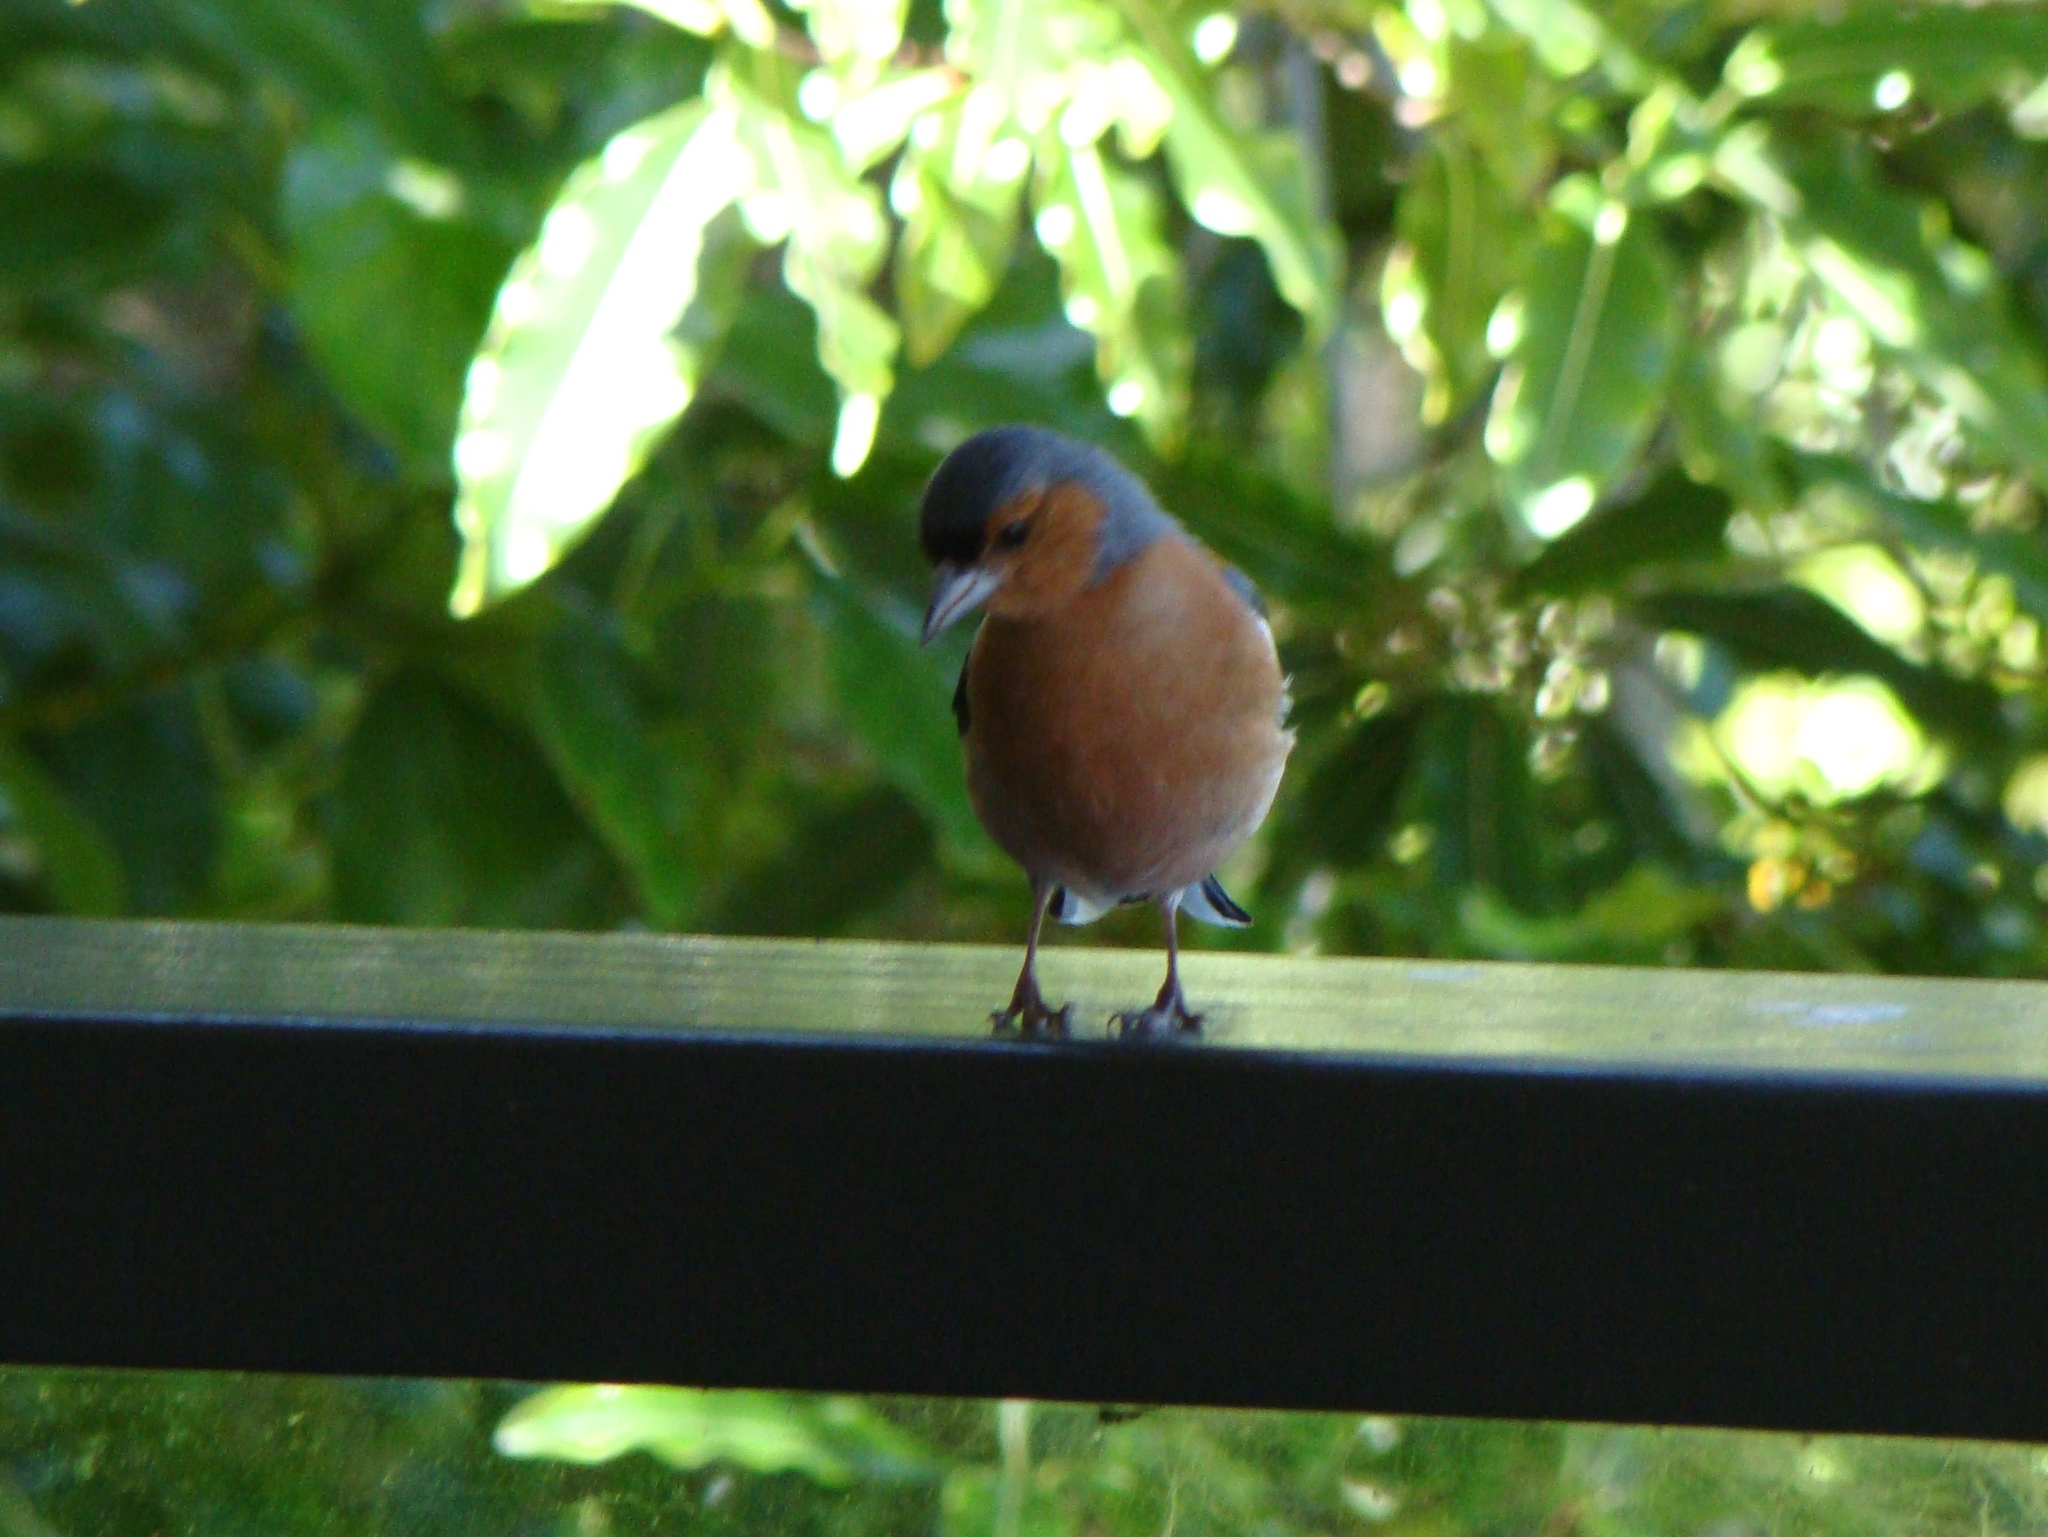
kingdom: Animalia
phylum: Chordata
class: Aves
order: Passeriformes
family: Fringillidae
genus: Fringilla
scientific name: Fringilla coelebs
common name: Common chaffinch
